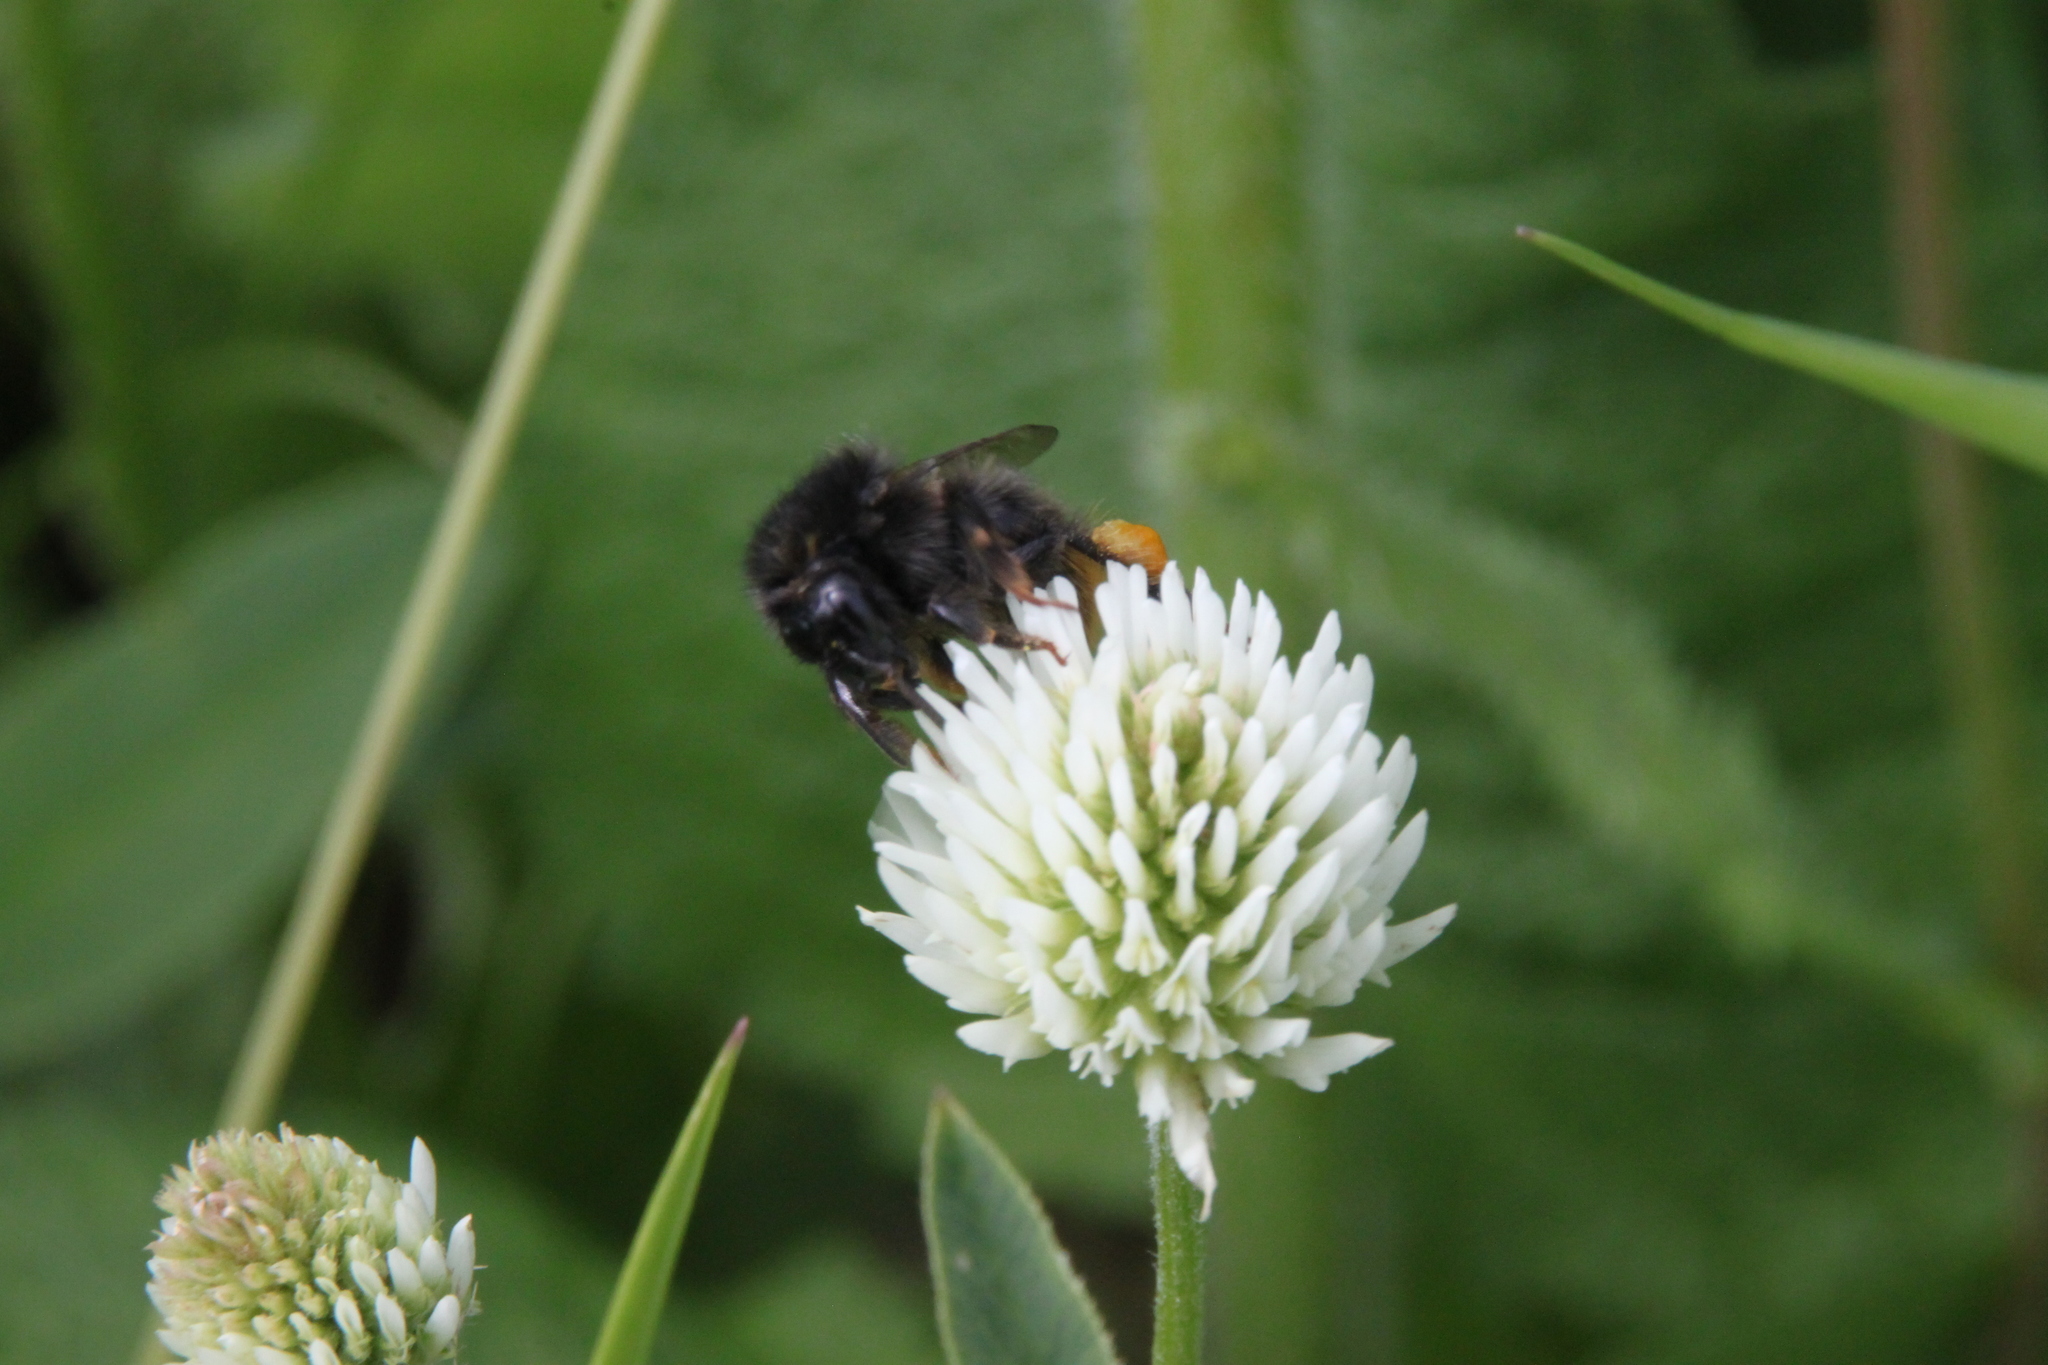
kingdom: Animalia
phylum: Arthropoda
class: Insecta
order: Hymenoptera
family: Apidae
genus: Bombus
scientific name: Bombus ruderarius
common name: Red-shanked carder-bee
